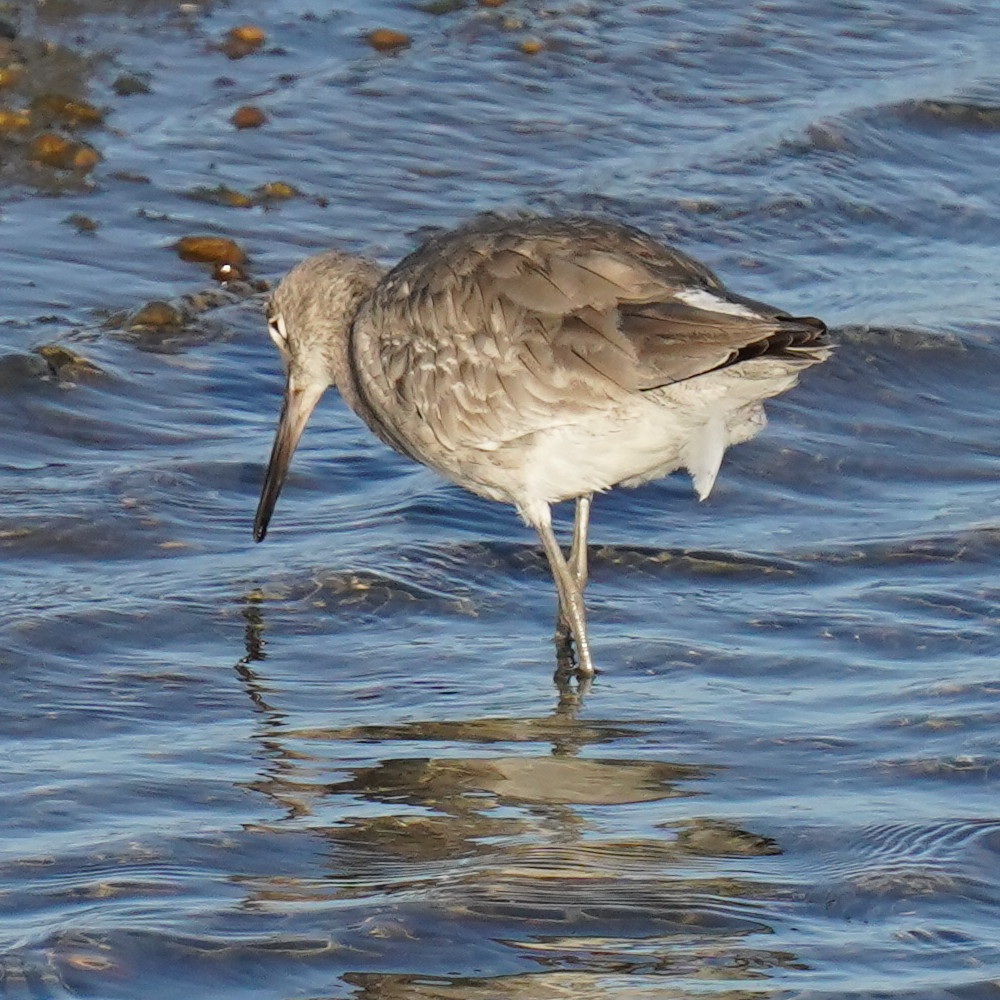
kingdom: Animalia
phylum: Chordata
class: Aves
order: Charadriiformes
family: Scolopacidae
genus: Tringa
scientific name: Tringa semipalmata
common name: Willet
